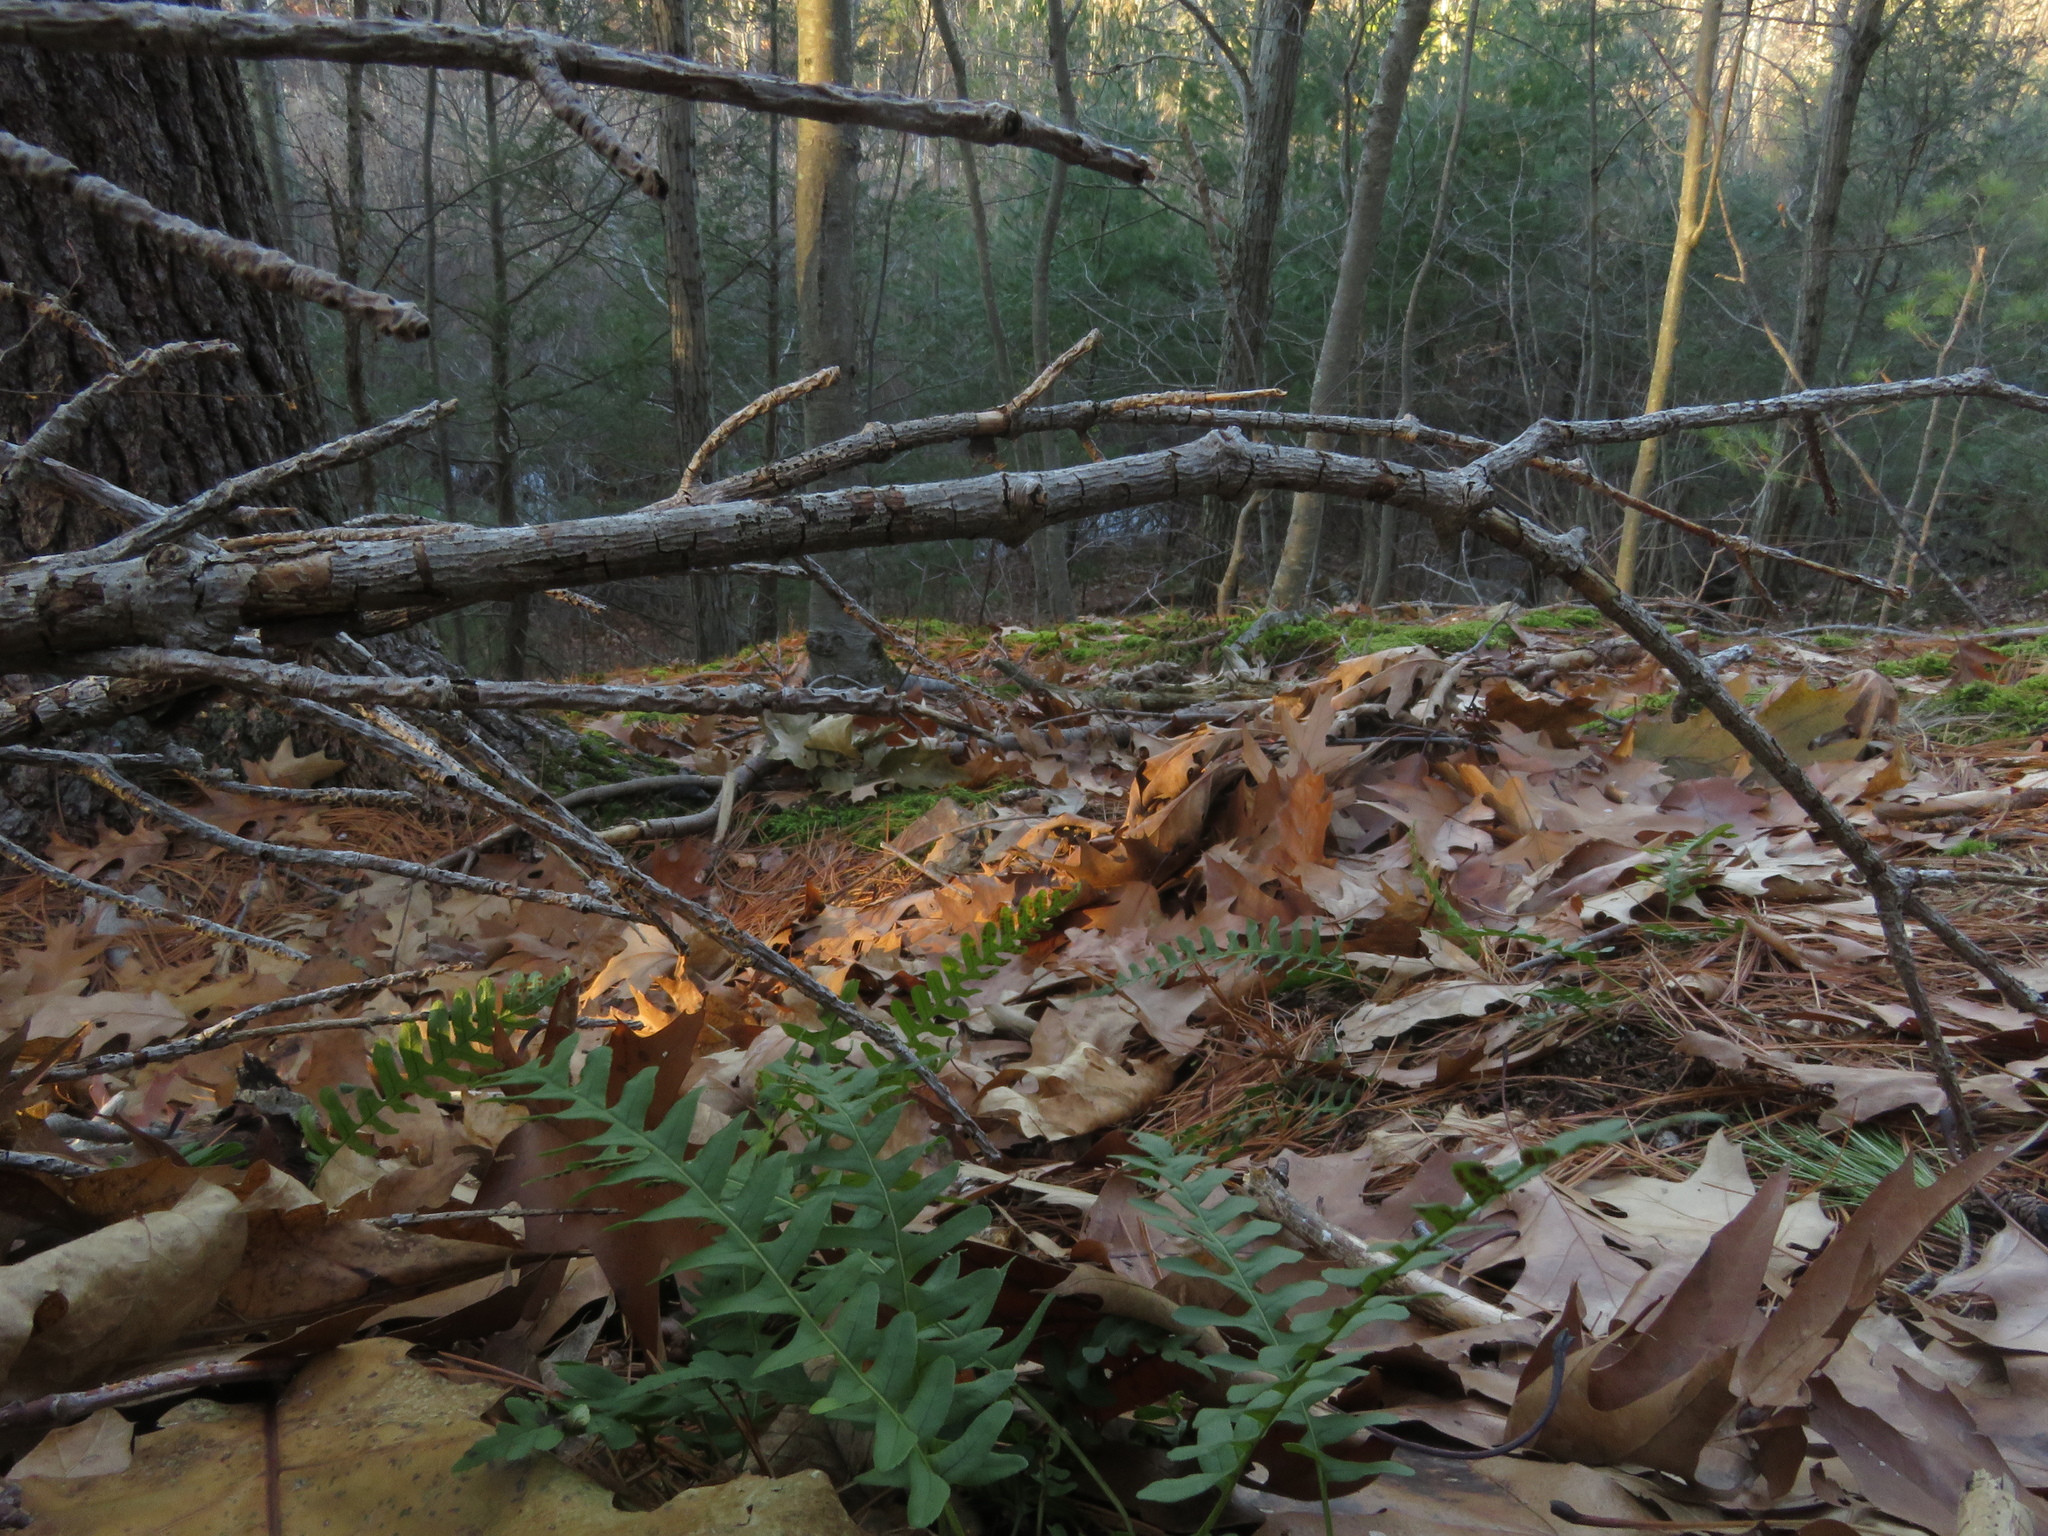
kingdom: Plantae
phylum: Tracheophyta
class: Polypodiopsida
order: Polypodiales
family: Polypodiaceae
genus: Polypodium
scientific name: Polypodium virginianum
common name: American wall fern
